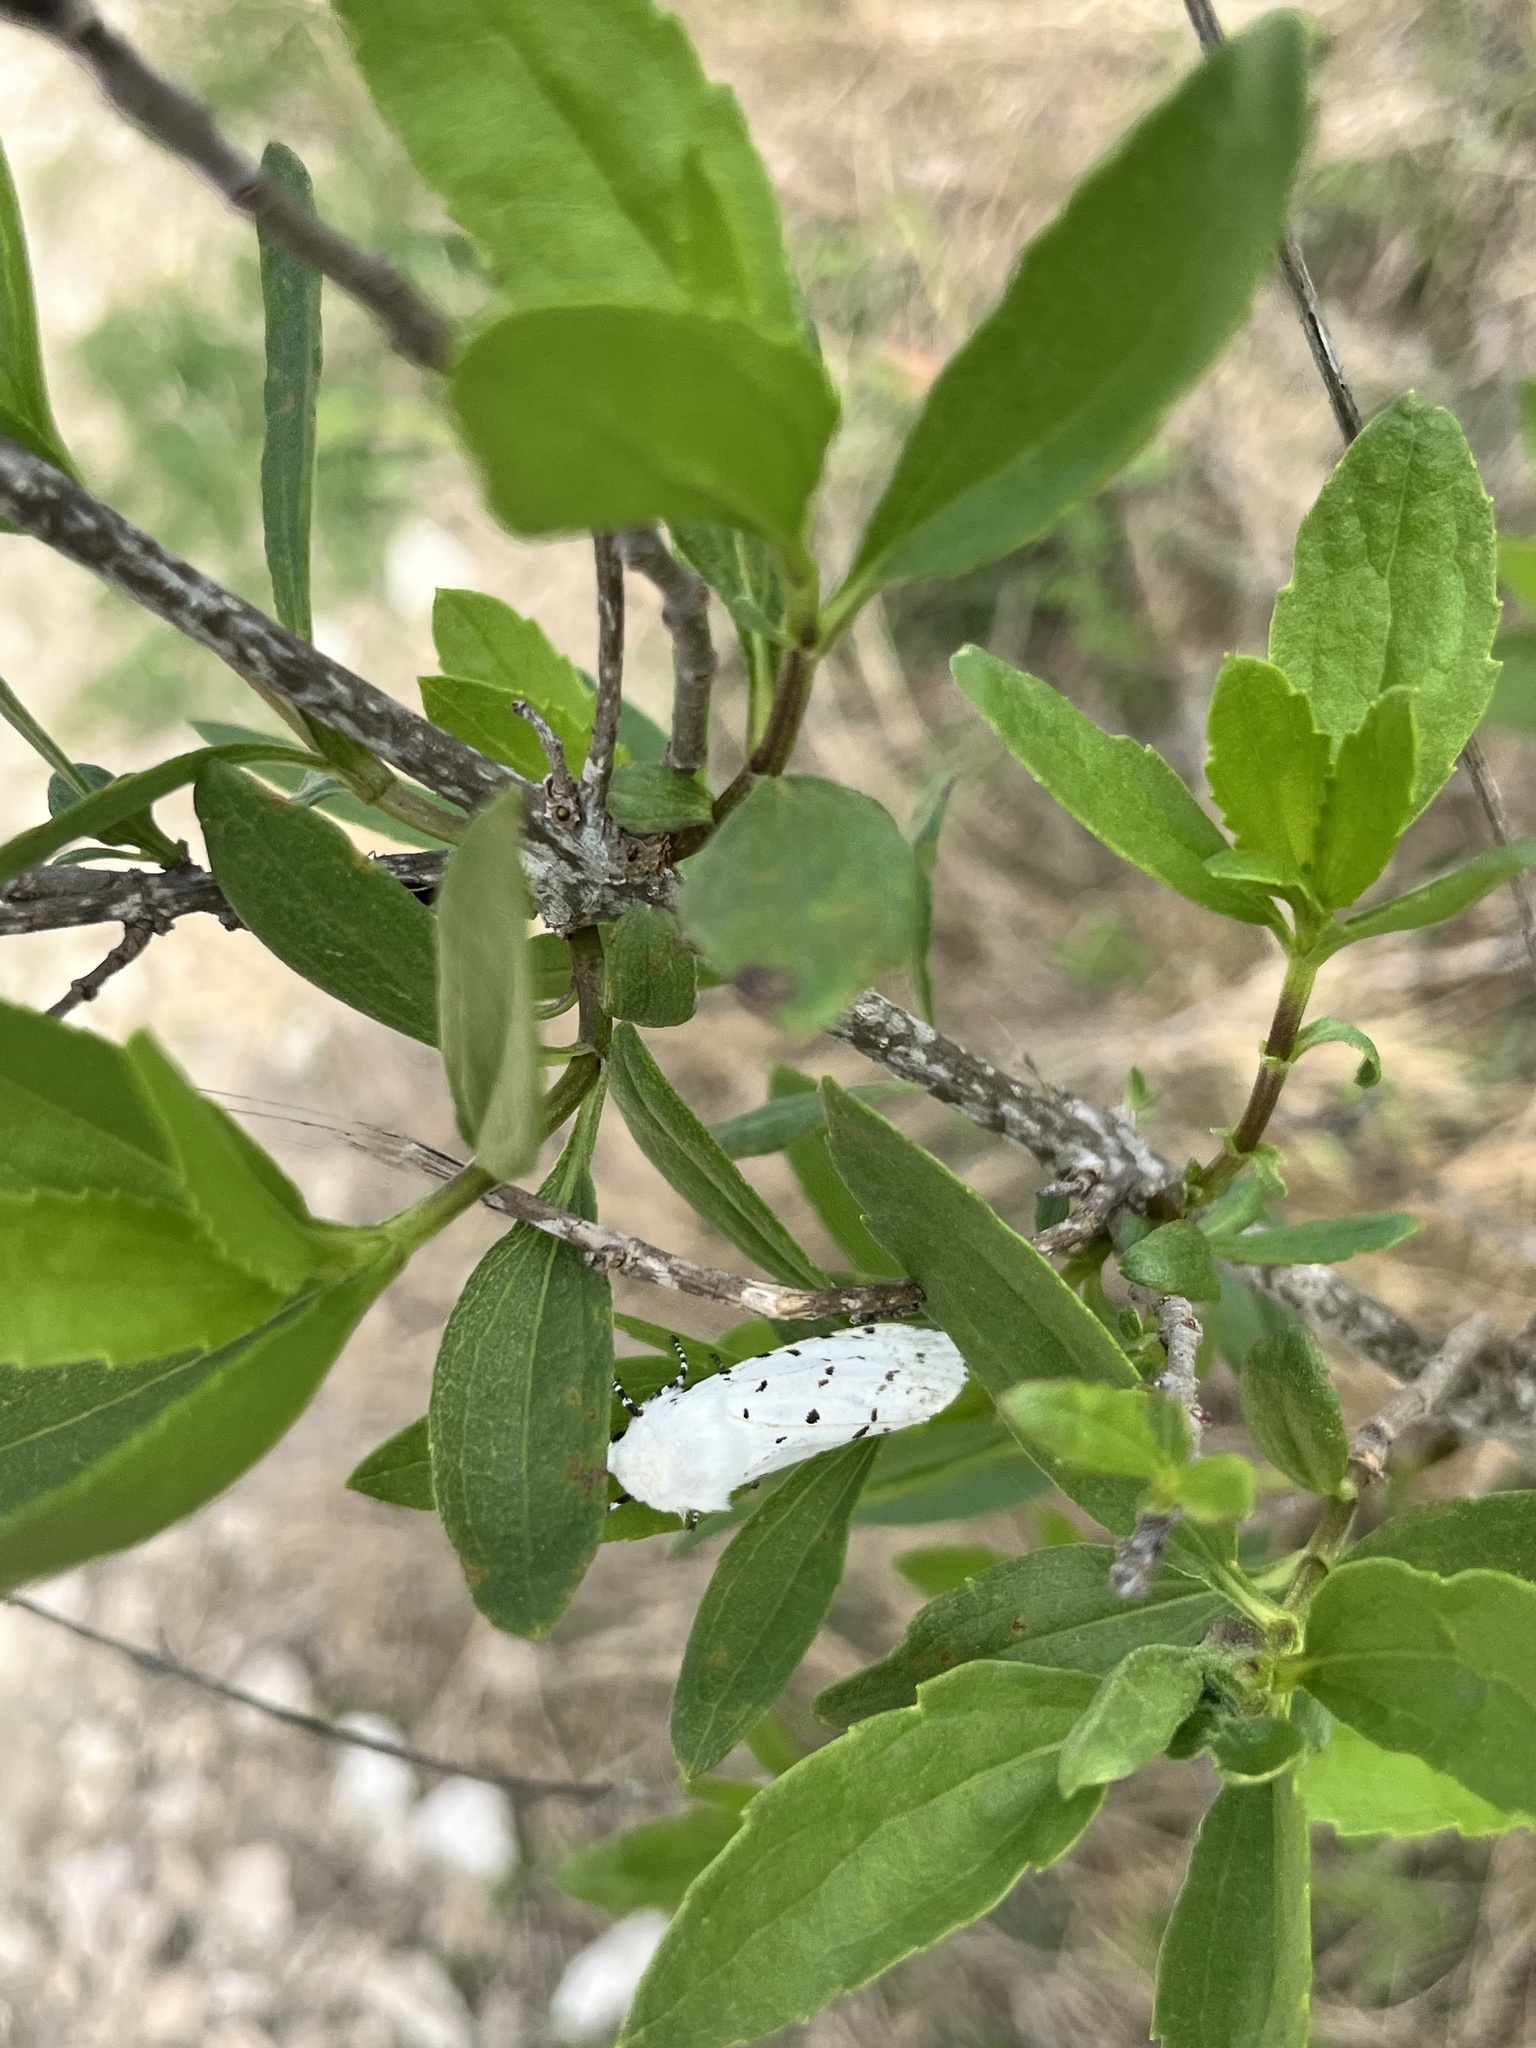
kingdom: Animalia
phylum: Arthropoda
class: Insecta
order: Lepidoptera
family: Erebidae
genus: Estigmene
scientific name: Estigmene acrea
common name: Salt marsh moth
